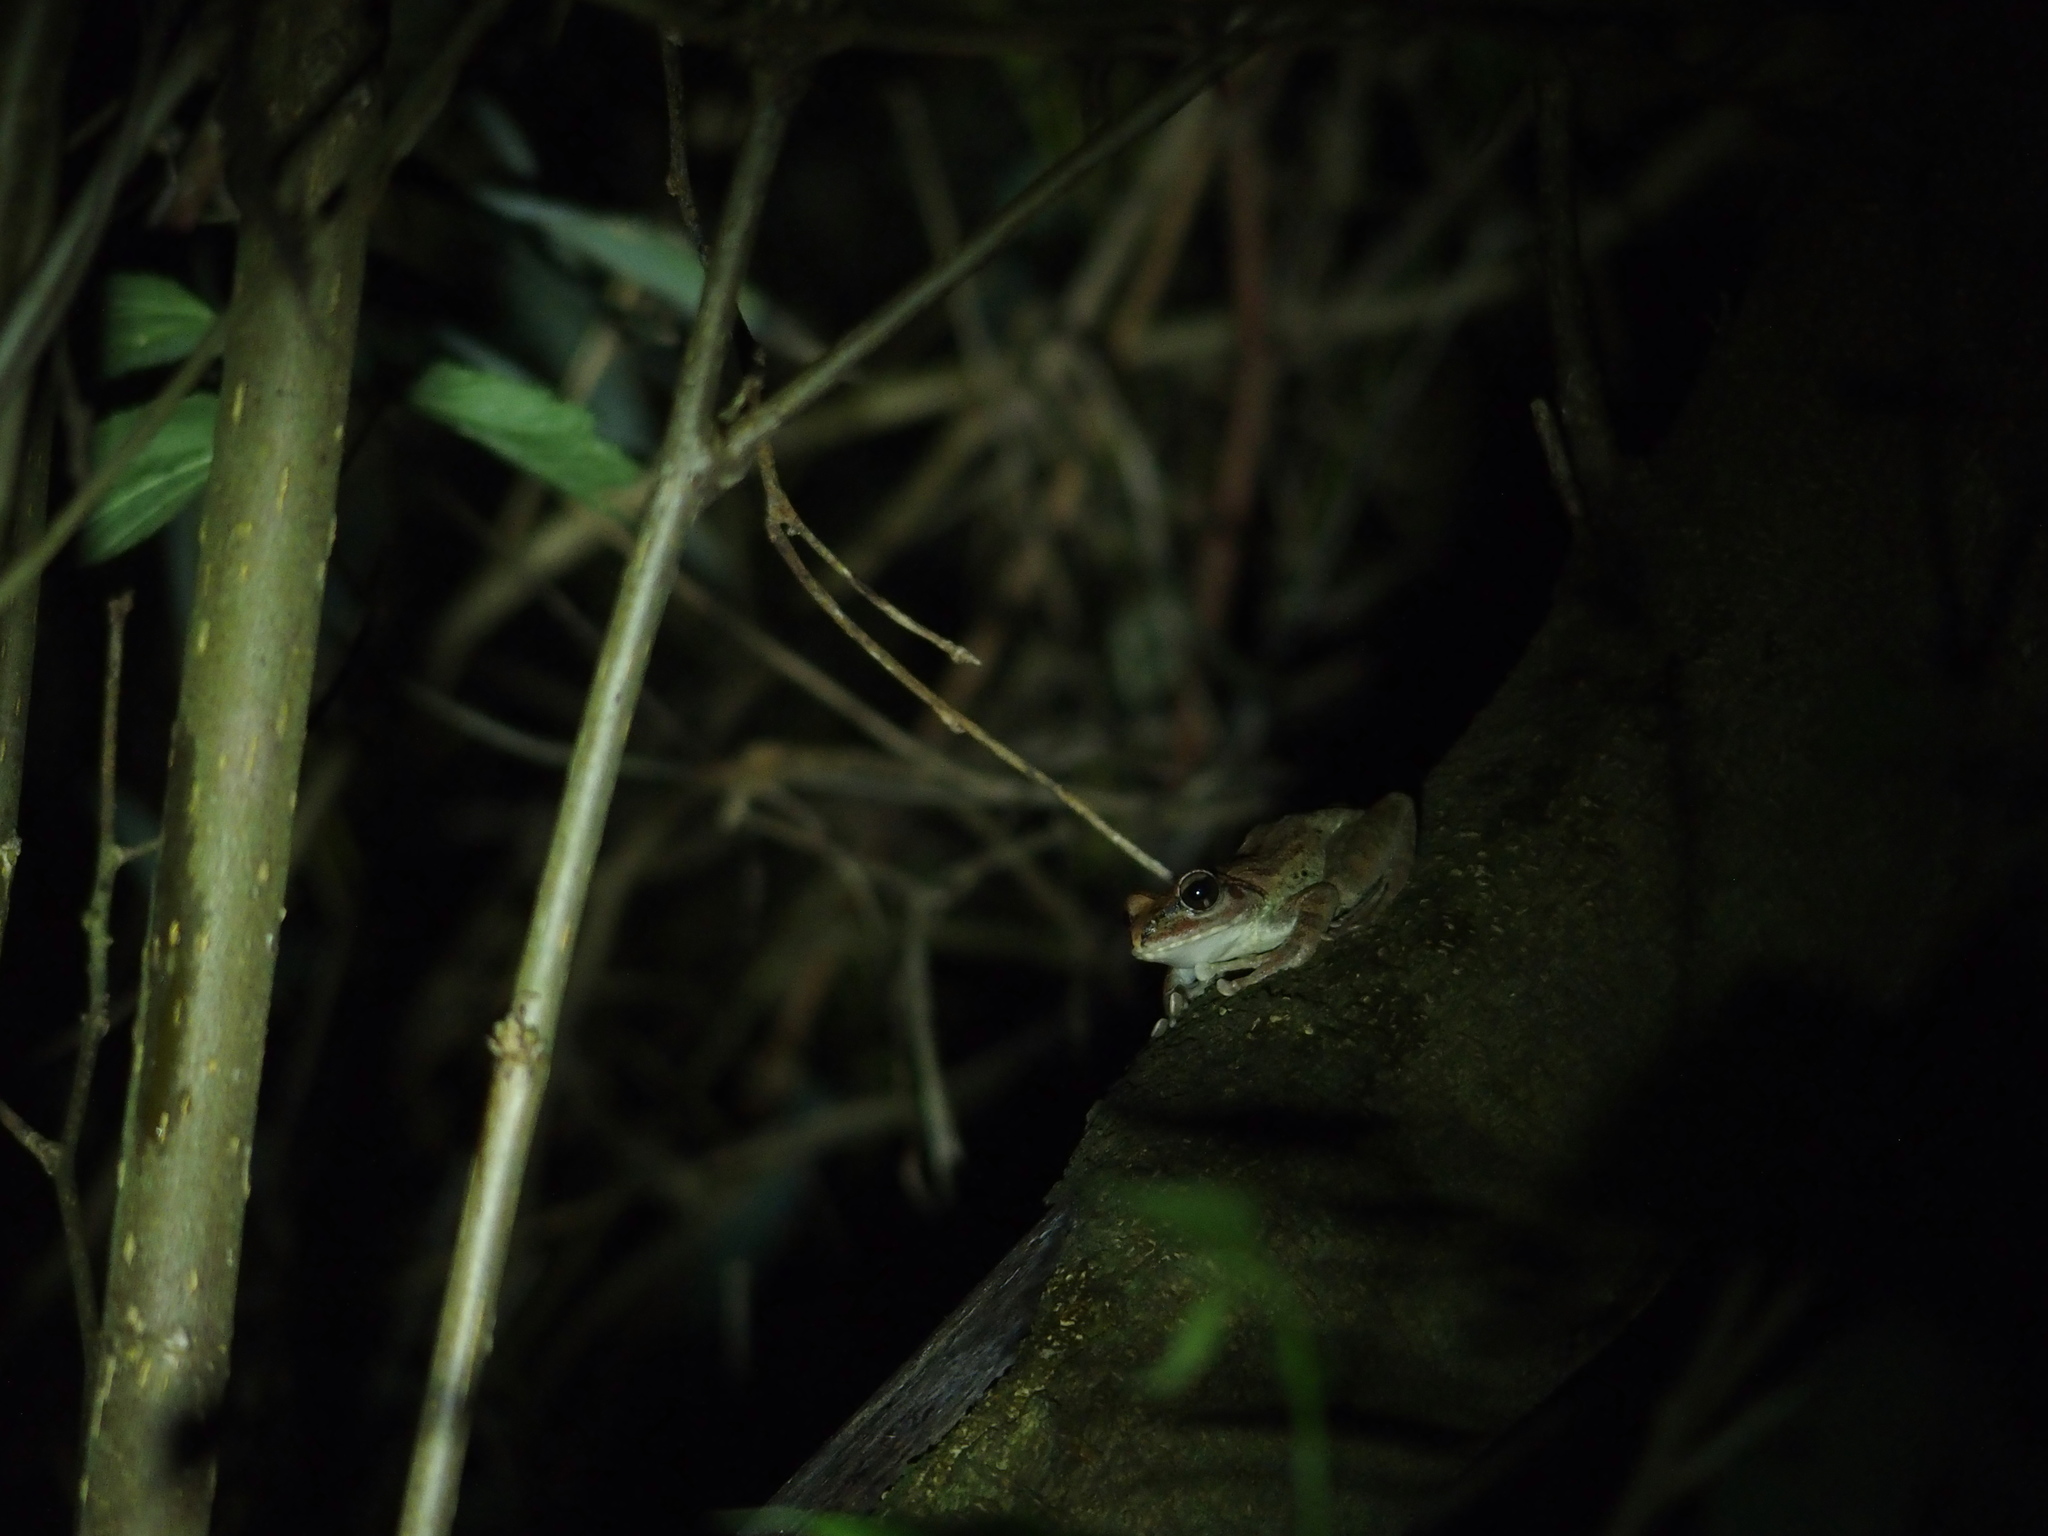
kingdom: Animalia
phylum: Chordata
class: Amphibia
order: Anura
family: Rhacophoridae
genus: Buergeria
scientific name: Buergeria robusta
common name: Brown treefrog
